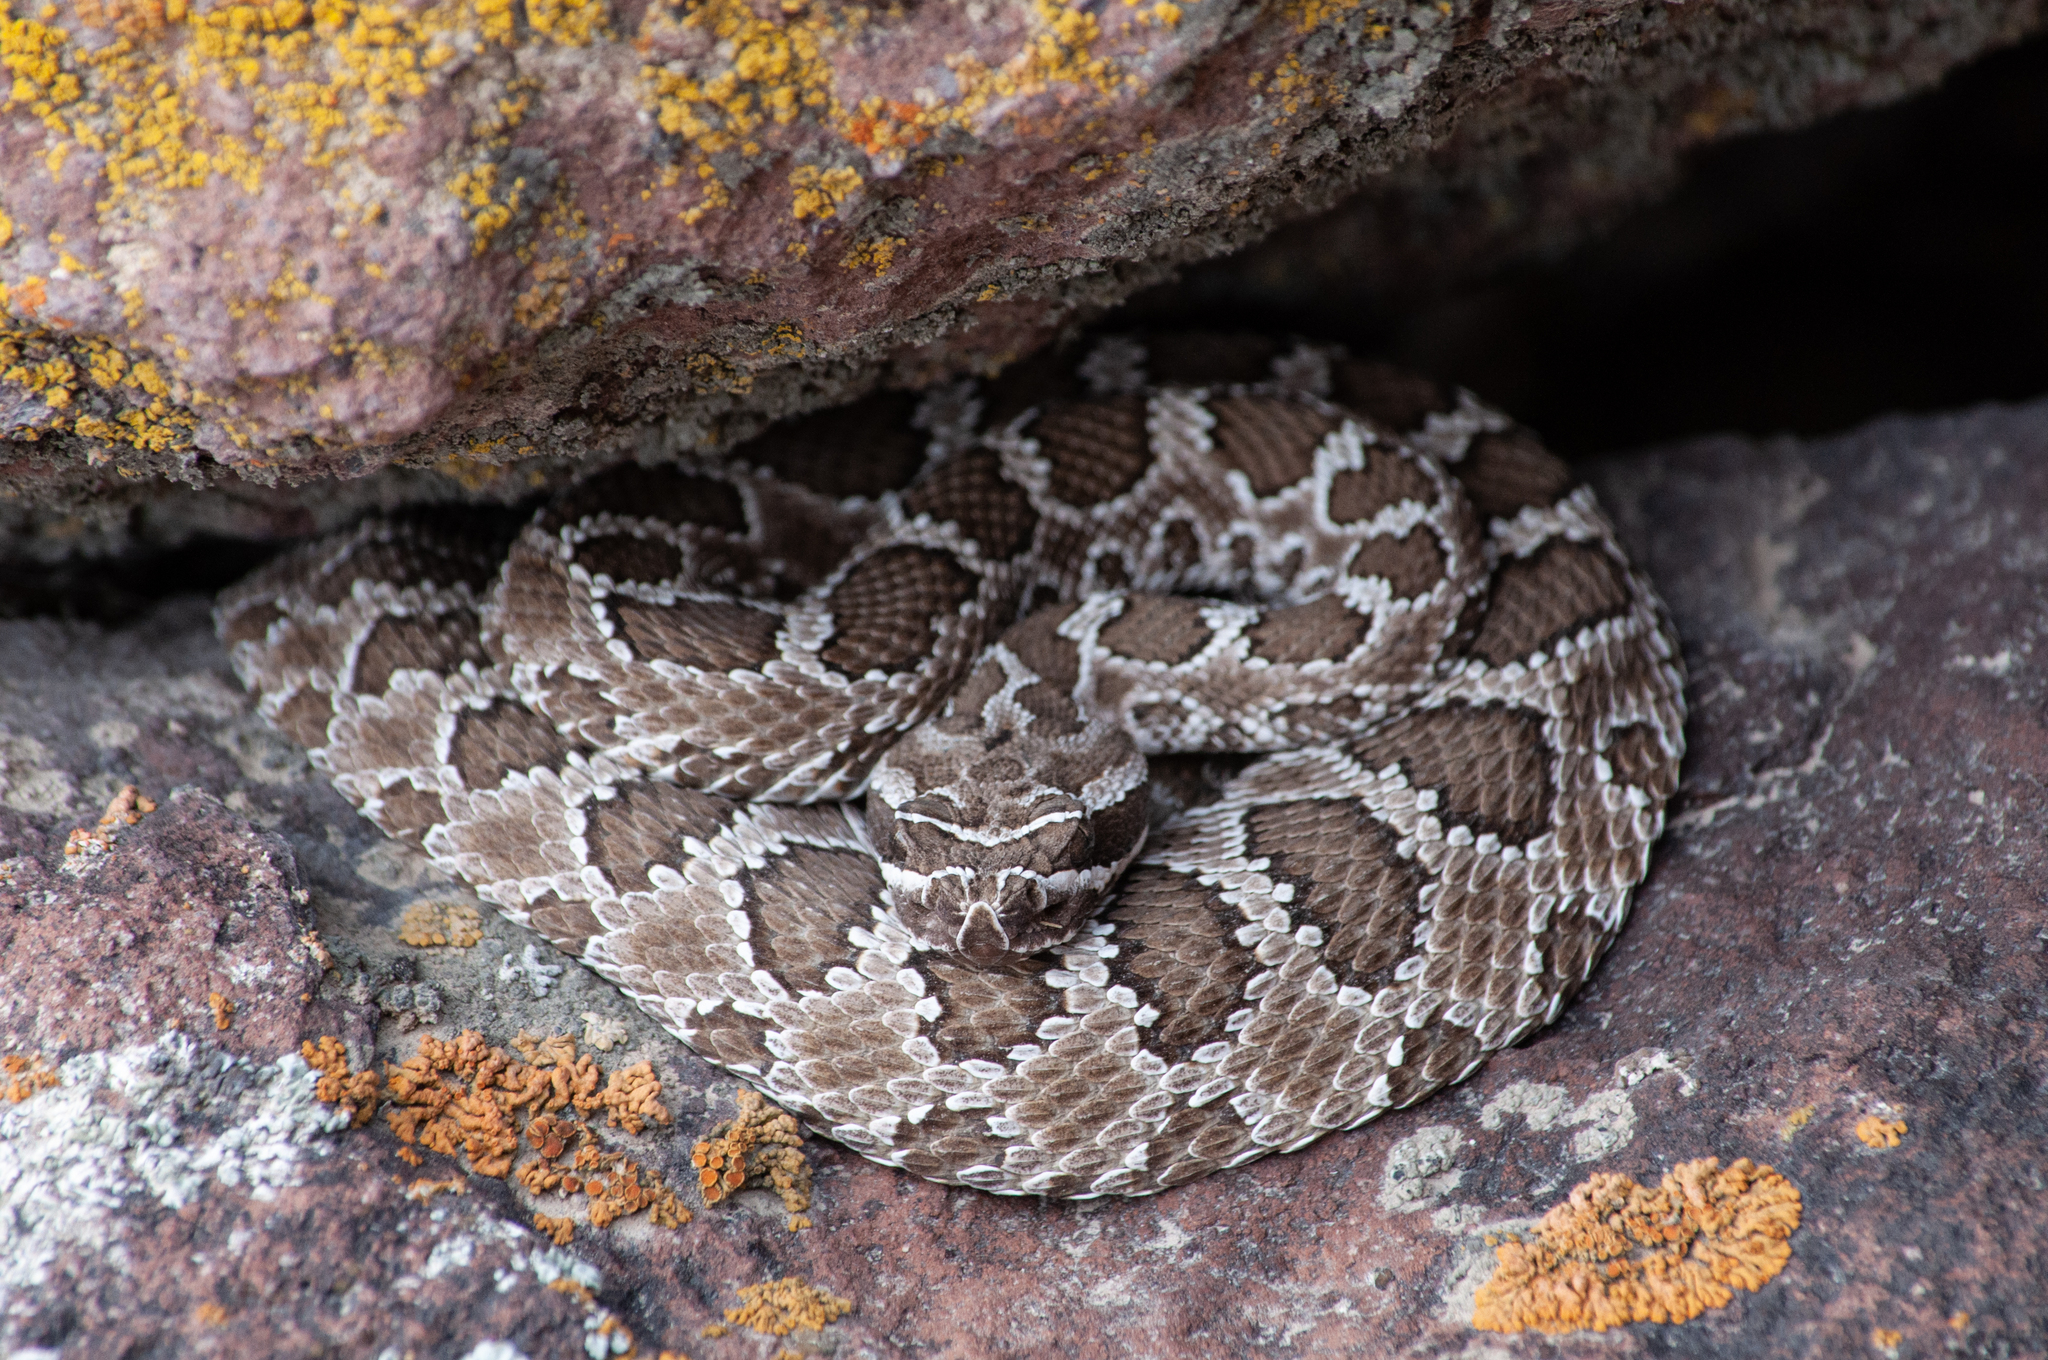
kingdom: Animalia
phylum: Chordata
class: Squamata
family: Viperidae
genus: Crotalus
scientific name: Crotalus oreganus
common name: Abyssus
